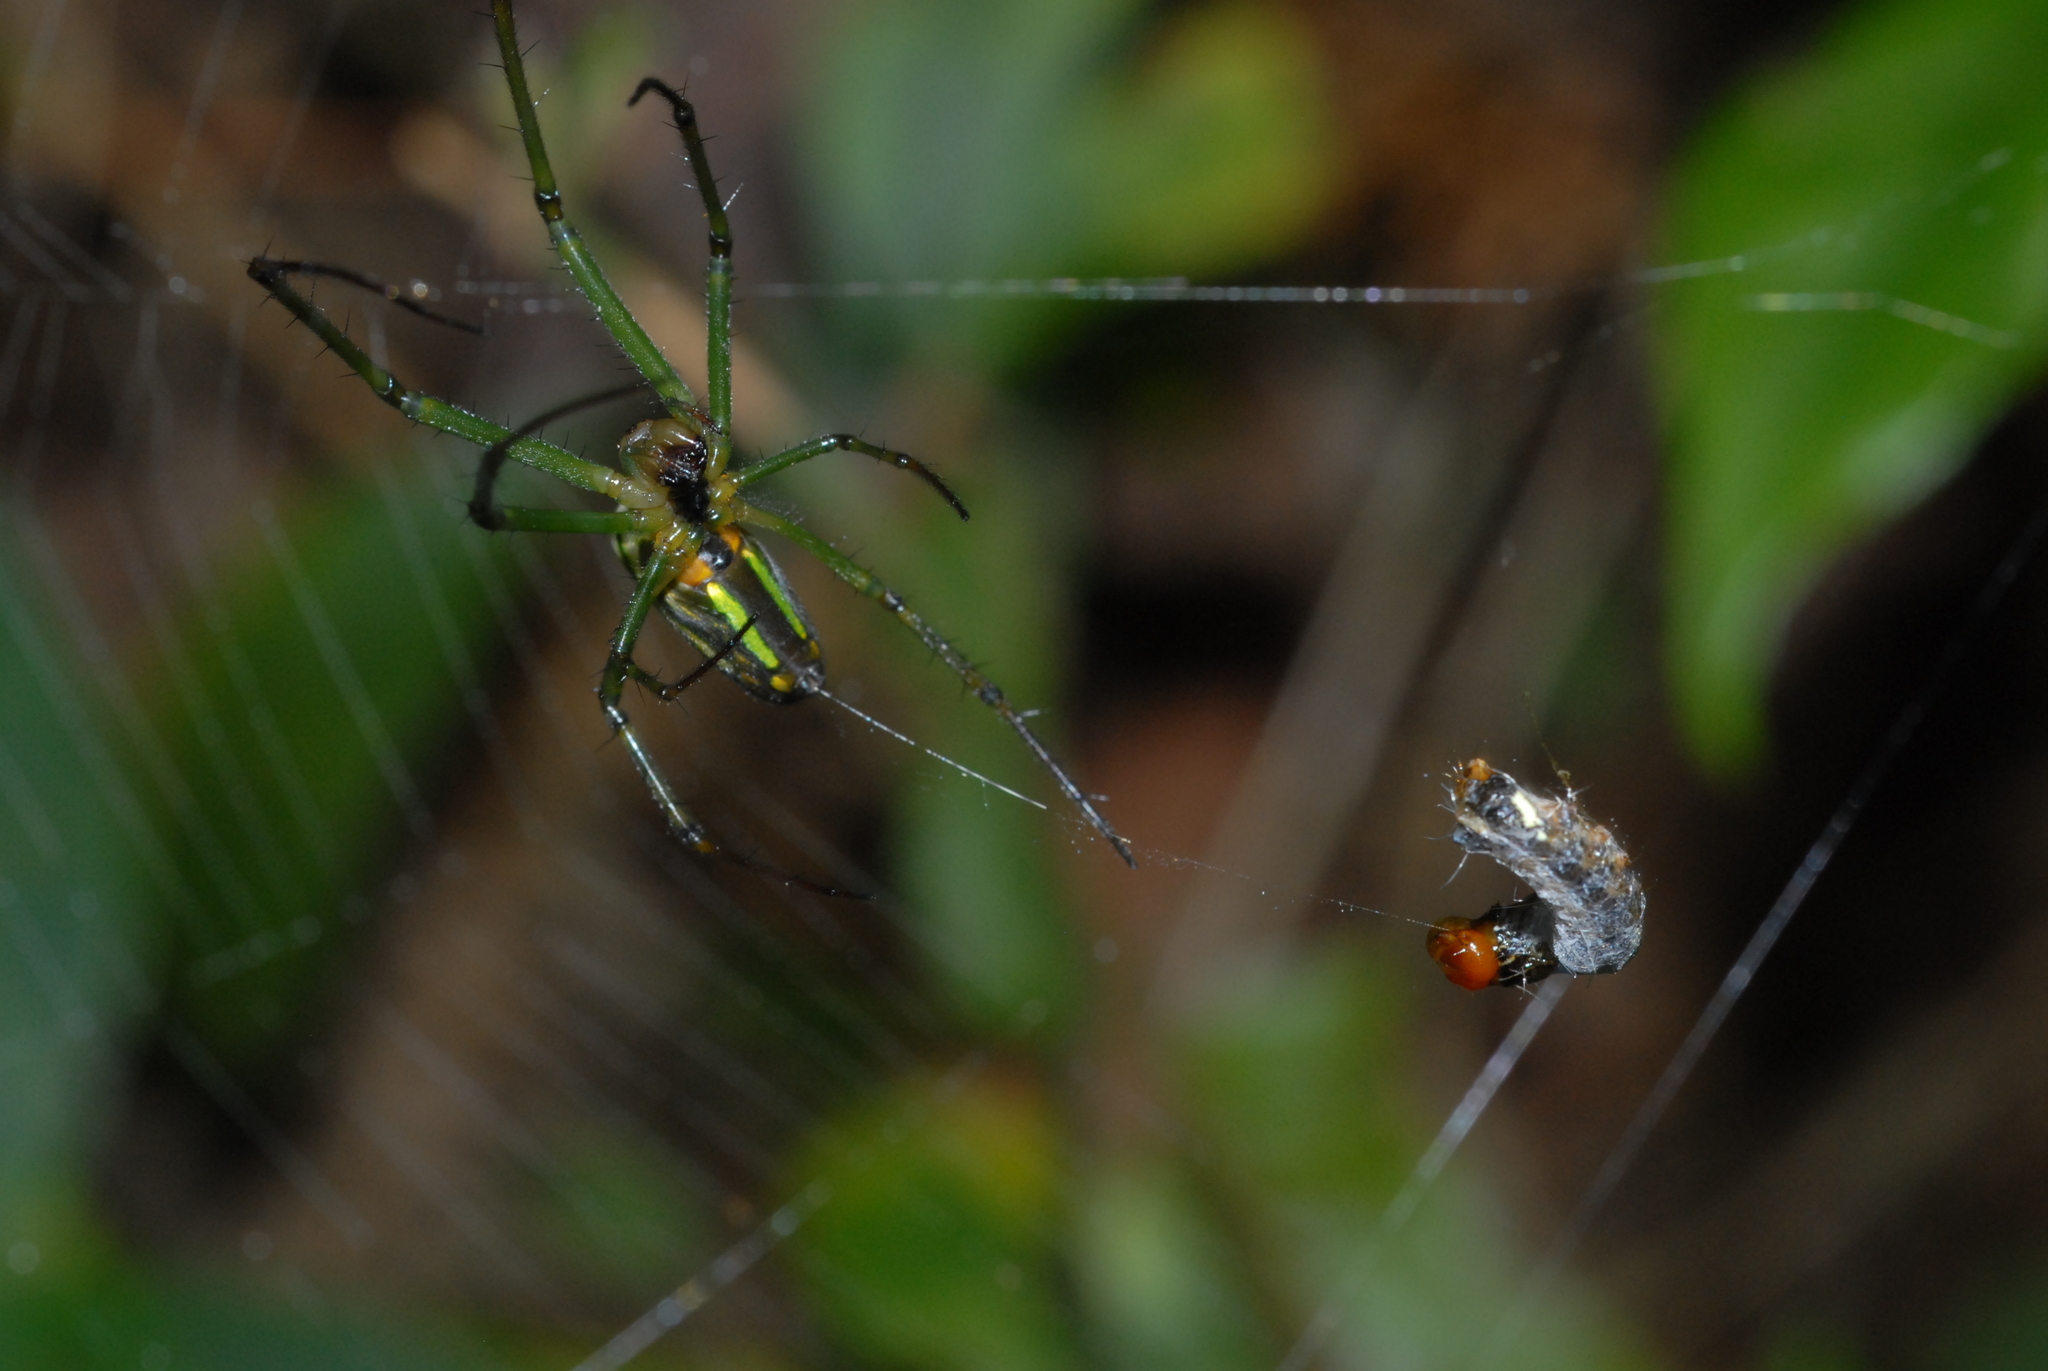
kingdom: Animalia
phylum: Arthropoda
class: Arachnida
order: Araneae
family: Tetragnathidae
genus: Leucauge
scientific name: Leucauge celebesiana
